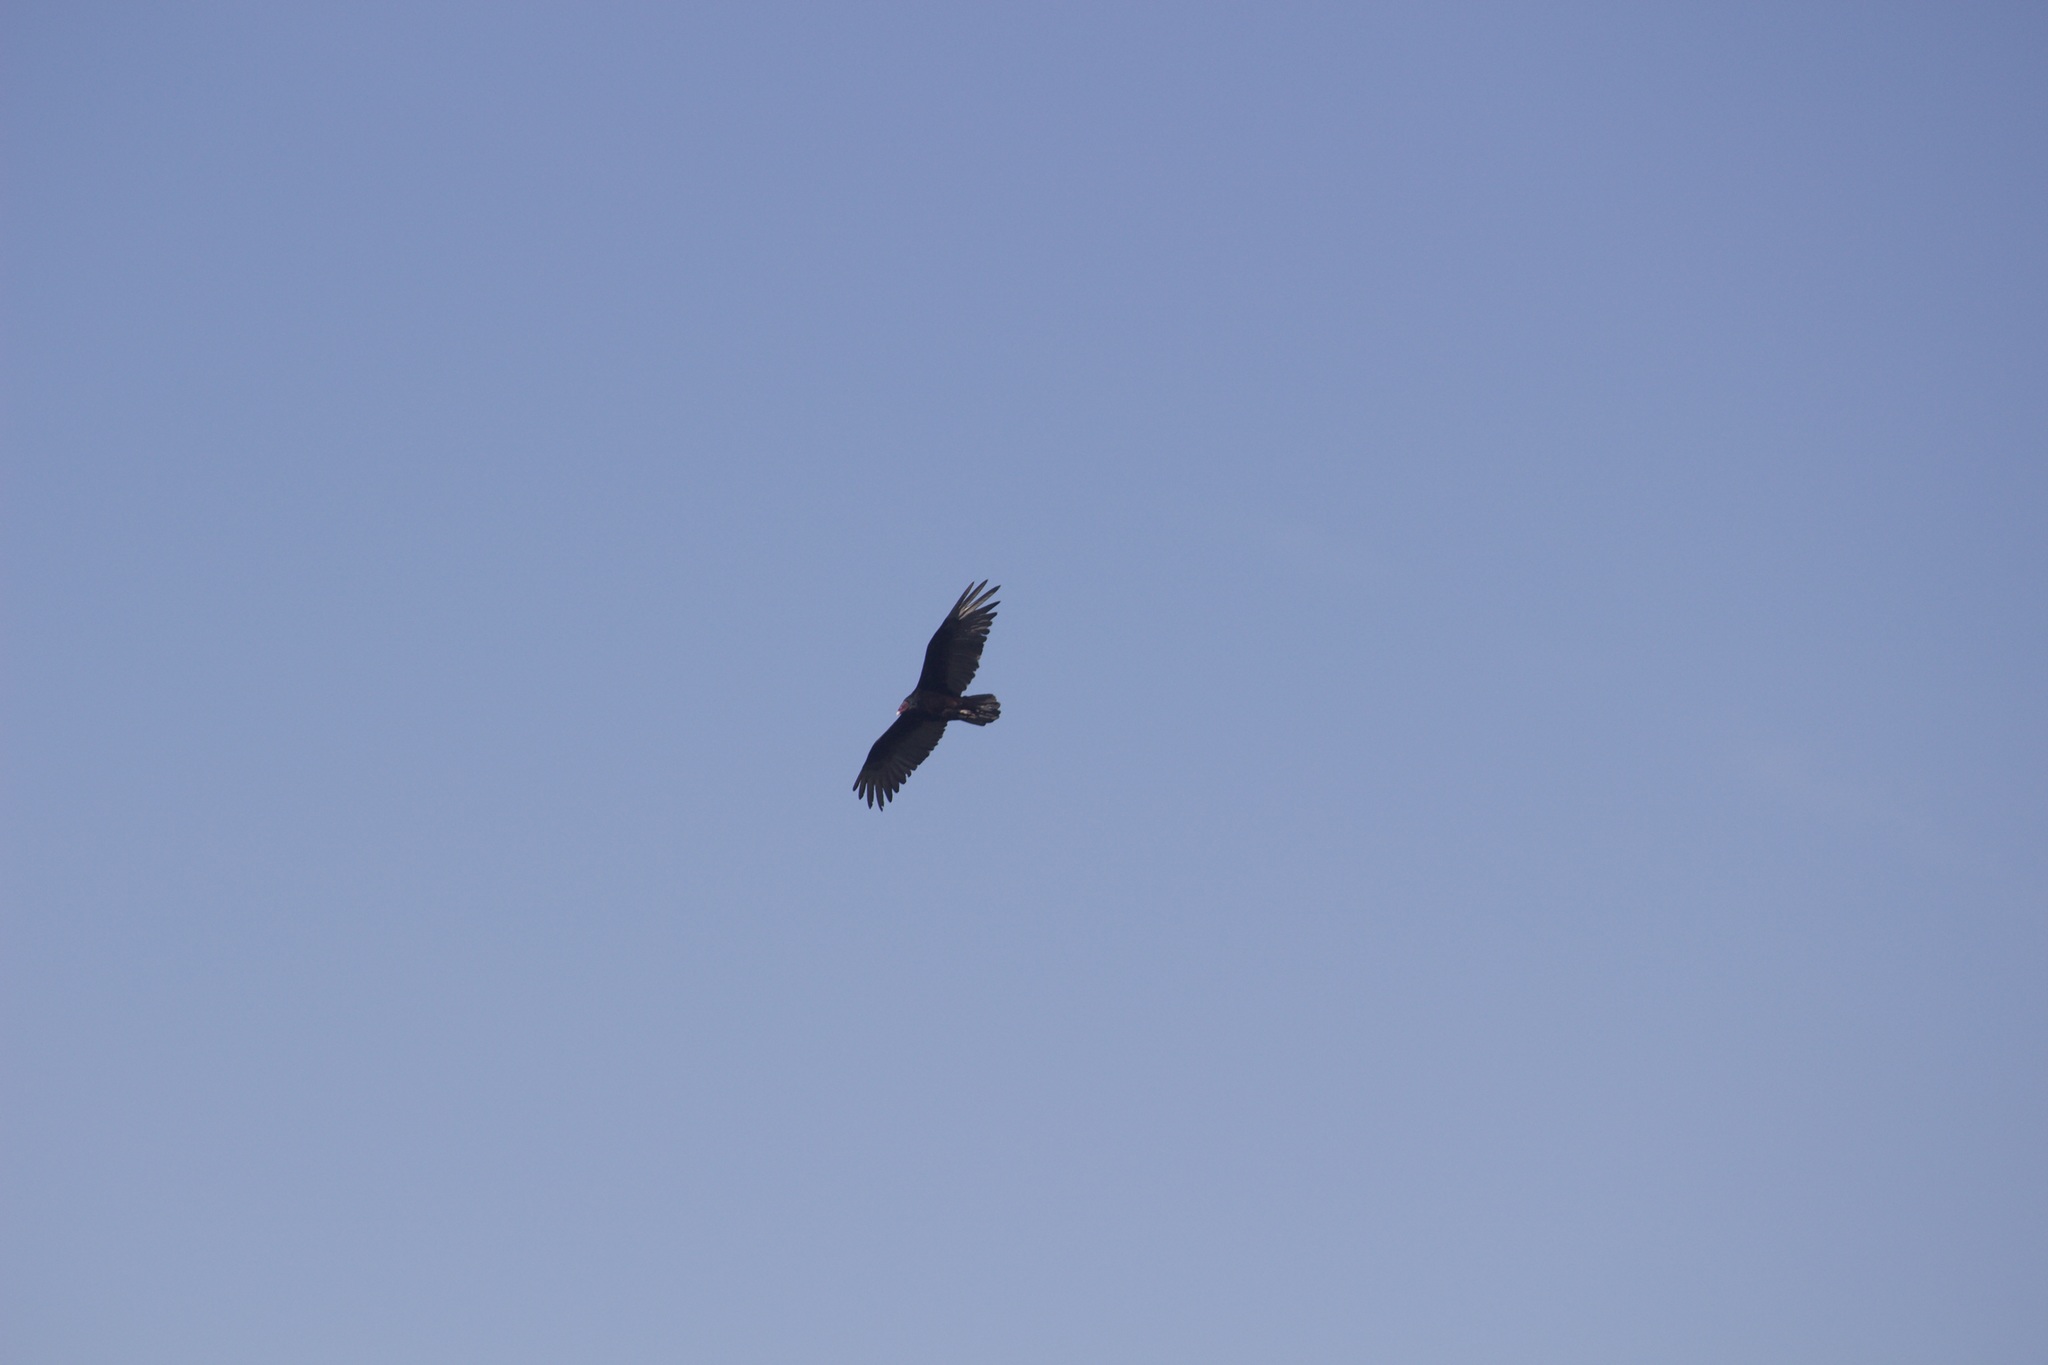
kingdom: Animalia
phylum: Chordata
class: Aves
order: Accipitriformes
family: Cathartidae
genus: Cathartes
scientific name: Cathartes aura
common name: Turkey vulture
